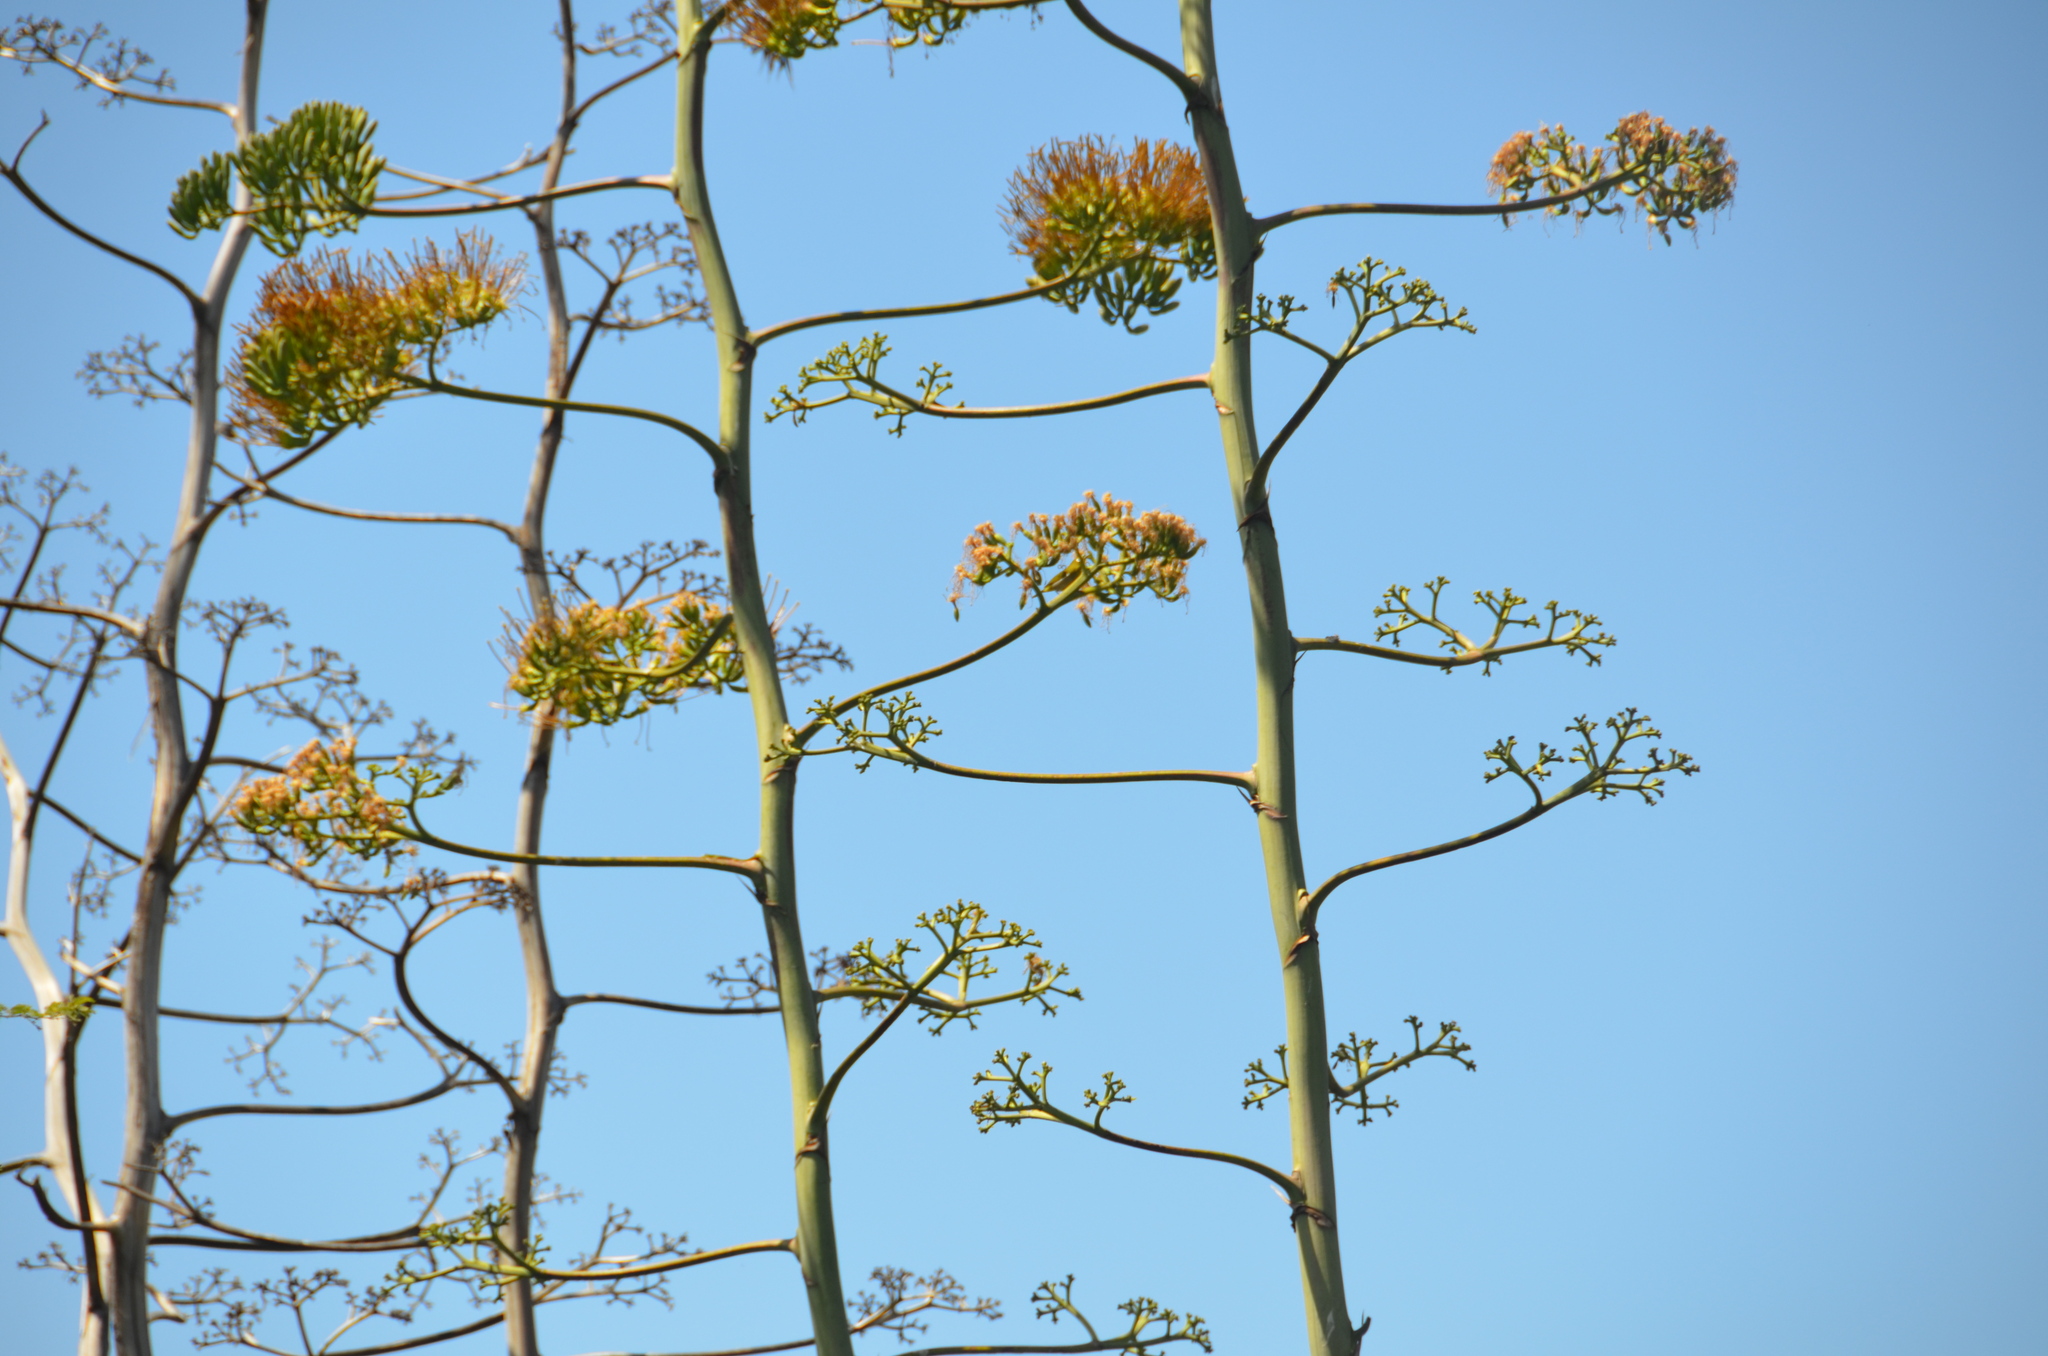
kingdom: Animalia
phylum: Chordata
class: Aves
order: Passeriformes
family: Zosteropidae
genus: Zosterops
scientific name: Zosterops japonicus
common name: Japanese white-eye
